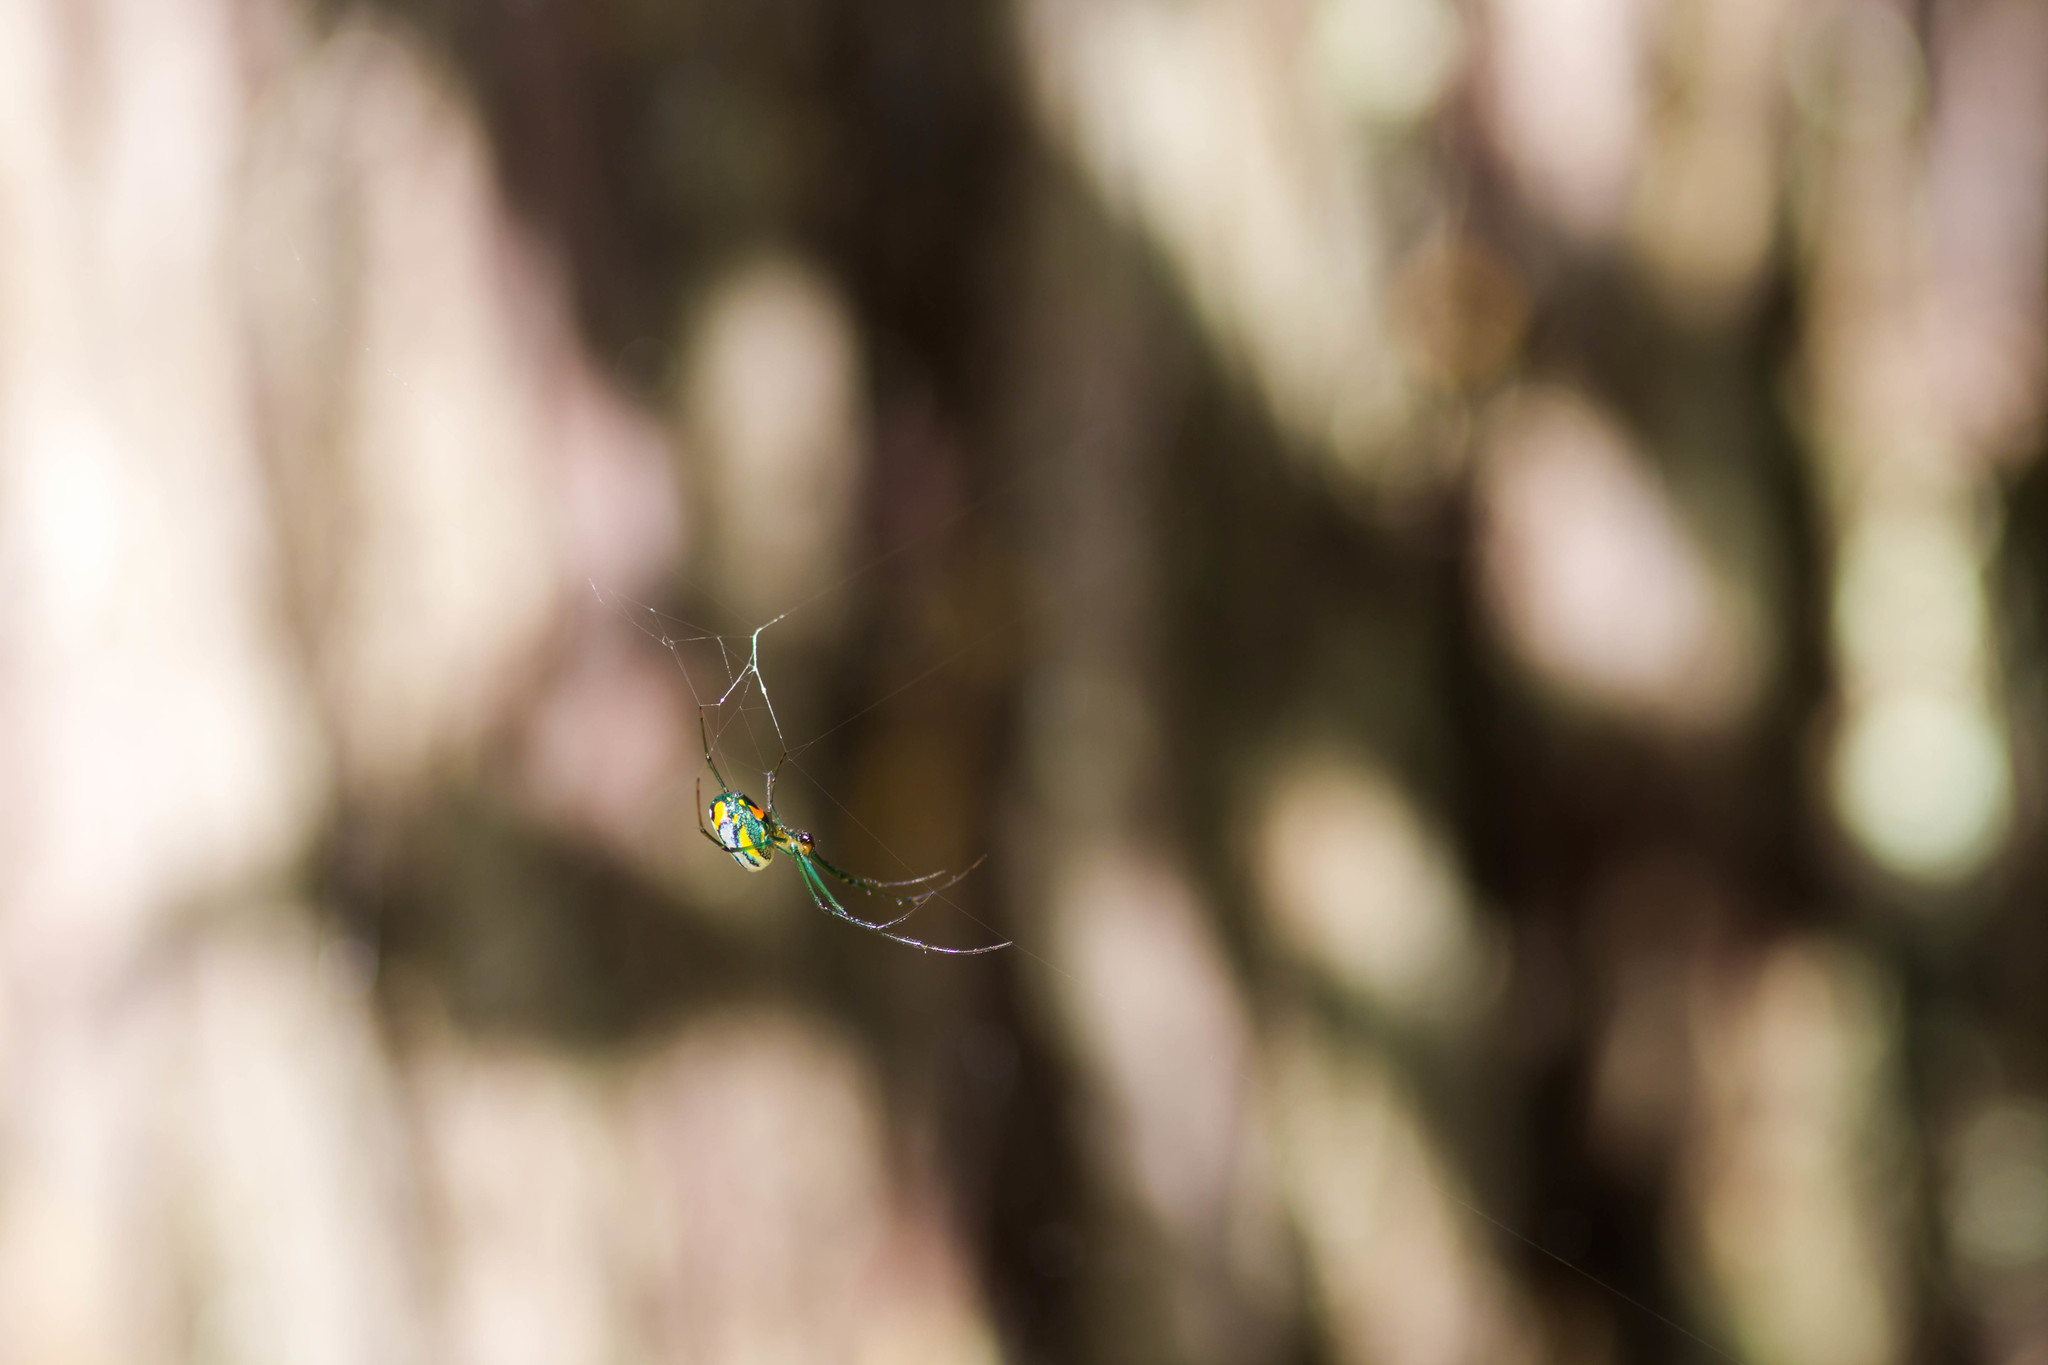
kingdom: Animalia
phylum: Arthropoda
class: Arachnida
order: Araneae
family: Tetragnathidae
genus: Leucauge
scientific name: Leucauge argyrobapta
